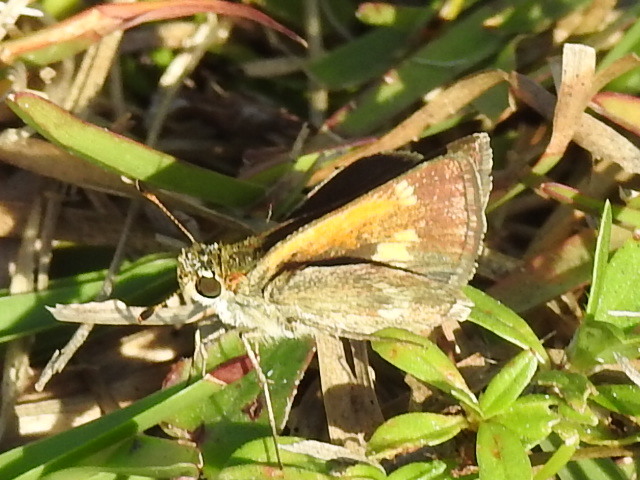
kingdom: Animalia
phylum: Arthropoda
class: Insecta
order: Lepidoptera
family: Hesperiidae
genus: Polites
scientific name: Polites baracoa
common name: Baracoa skipper
